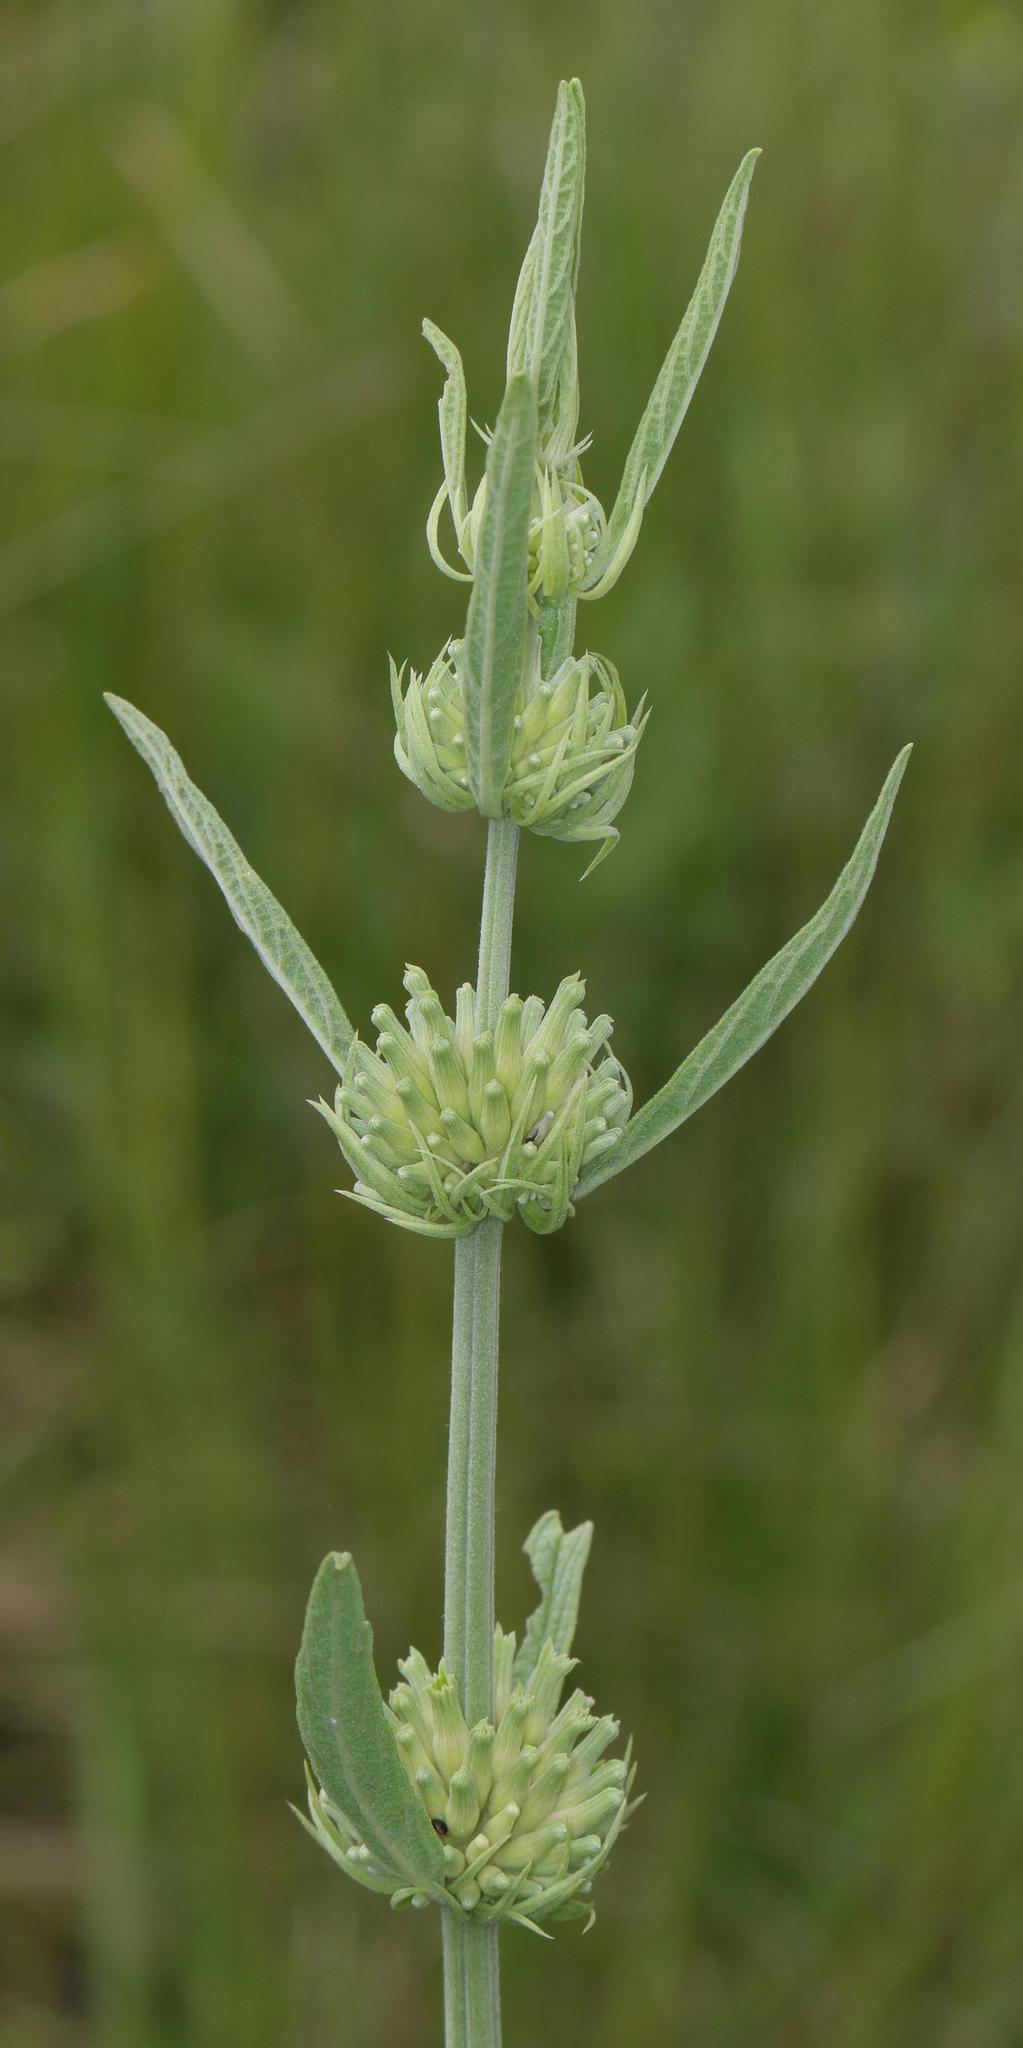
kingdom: Plantae
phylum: Tracheophyta
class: Magnoliopsida
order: Lamiales
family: Lamiaceae
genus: Leonotis
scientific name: Leonotis leonurus
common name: Lion's ear
